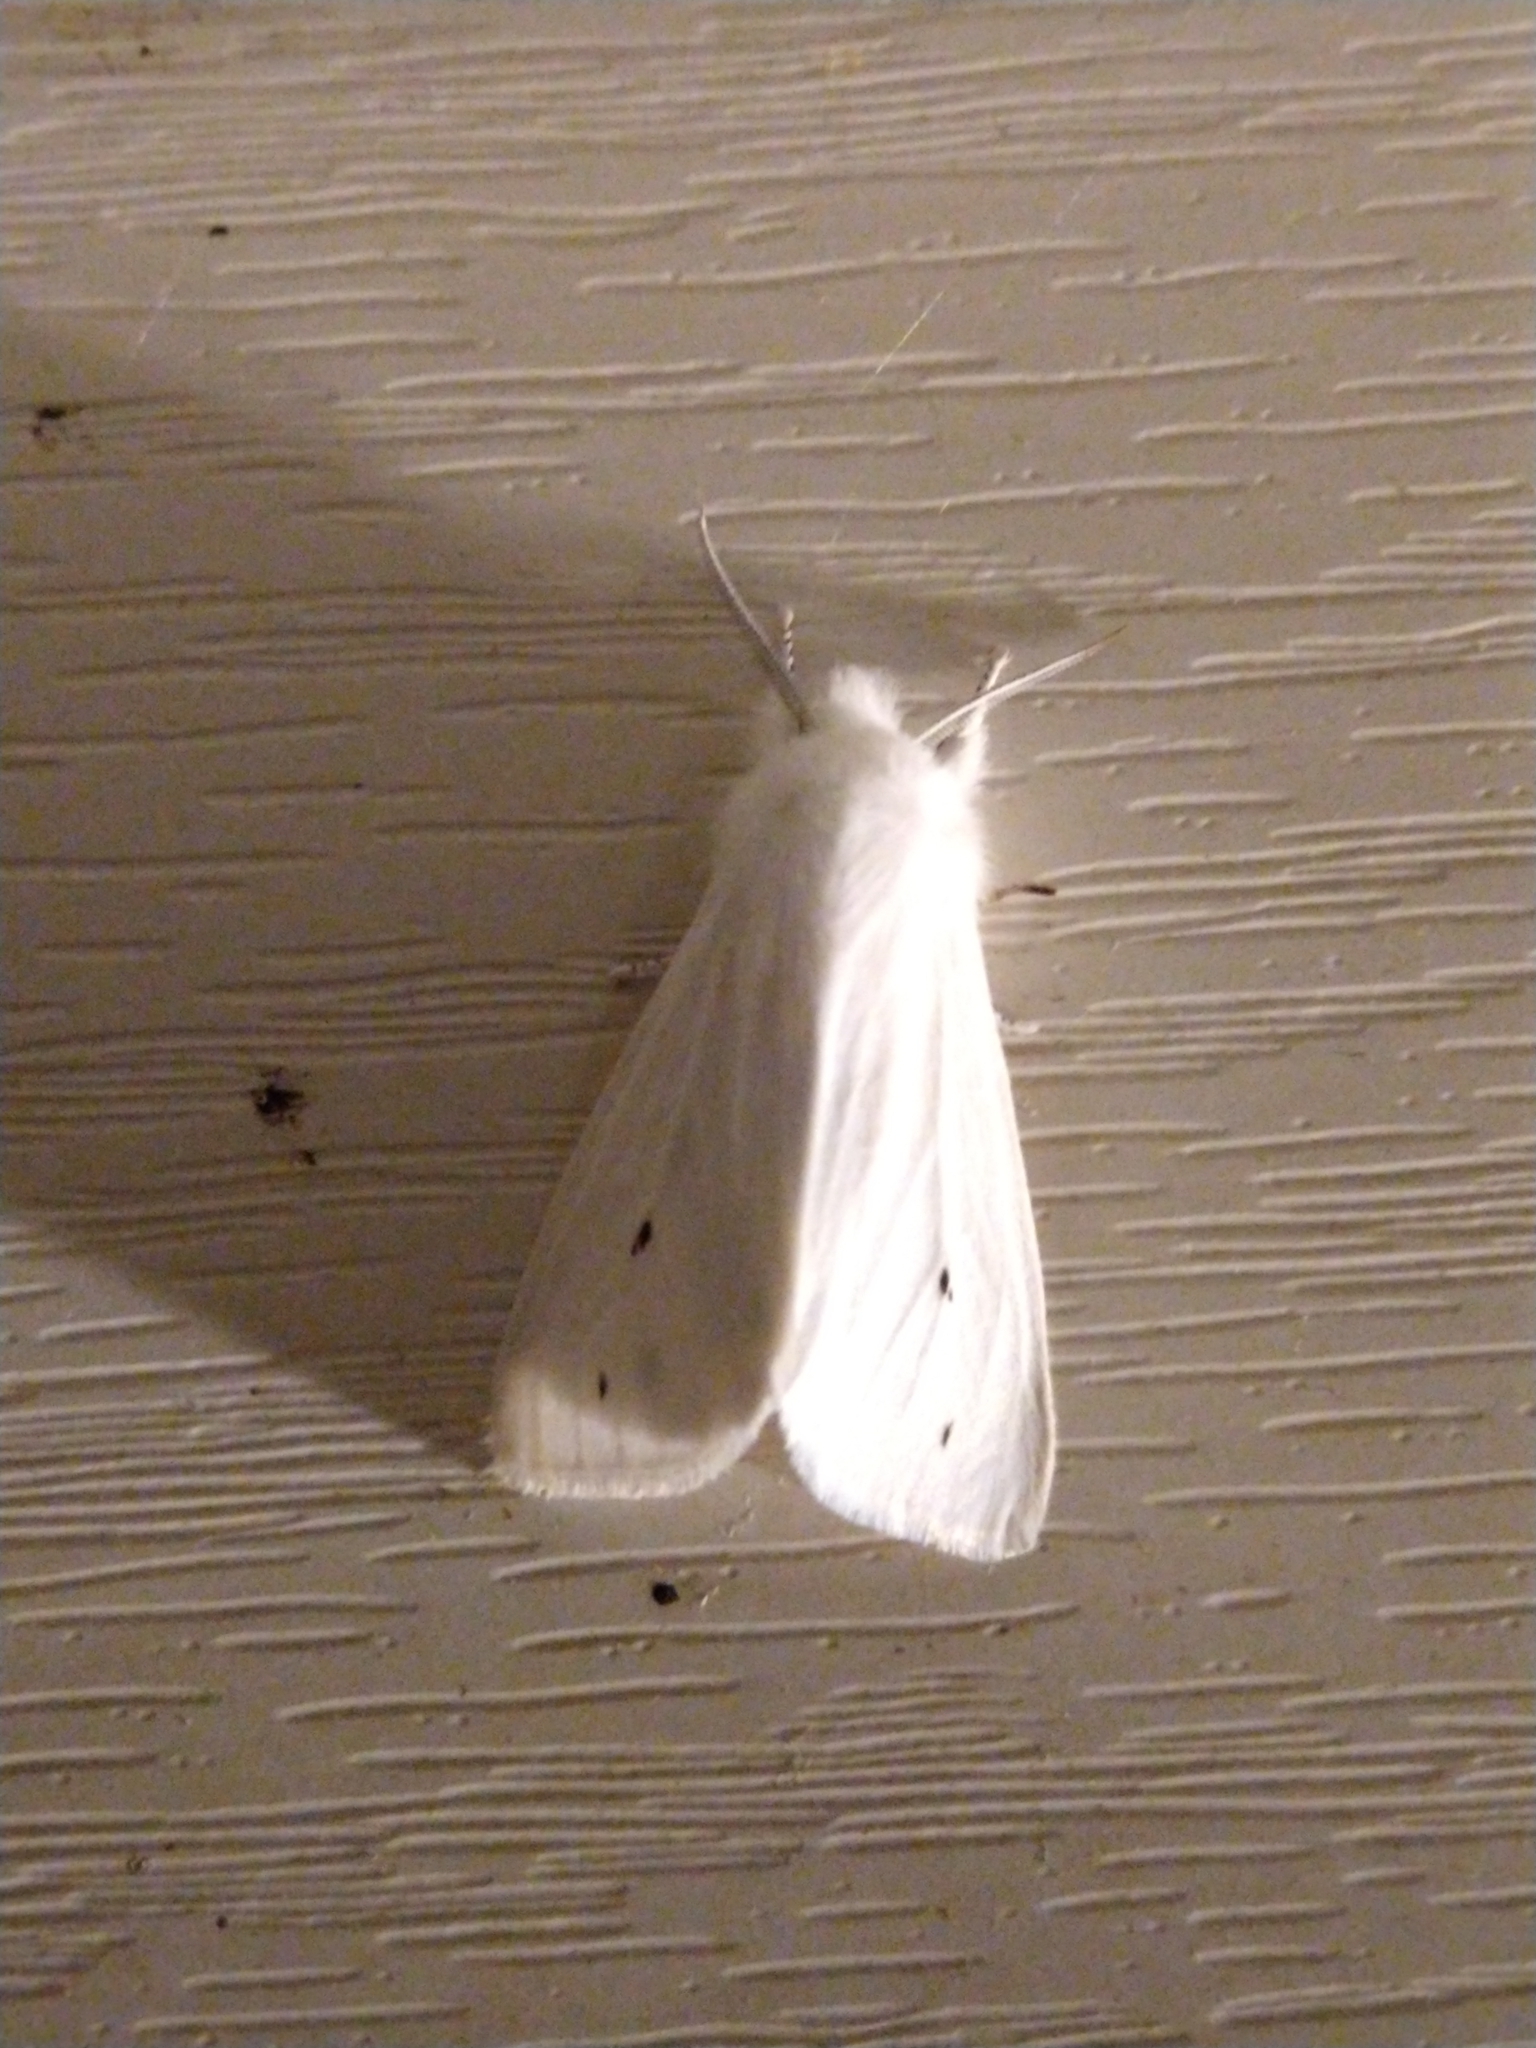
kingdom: Animalia
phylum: Arthropoda
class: Insecta
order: Lepidoptera
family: Erebidae
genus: Spilosoma
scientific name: Spilosoma virginica
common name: Virginia tiger moth
